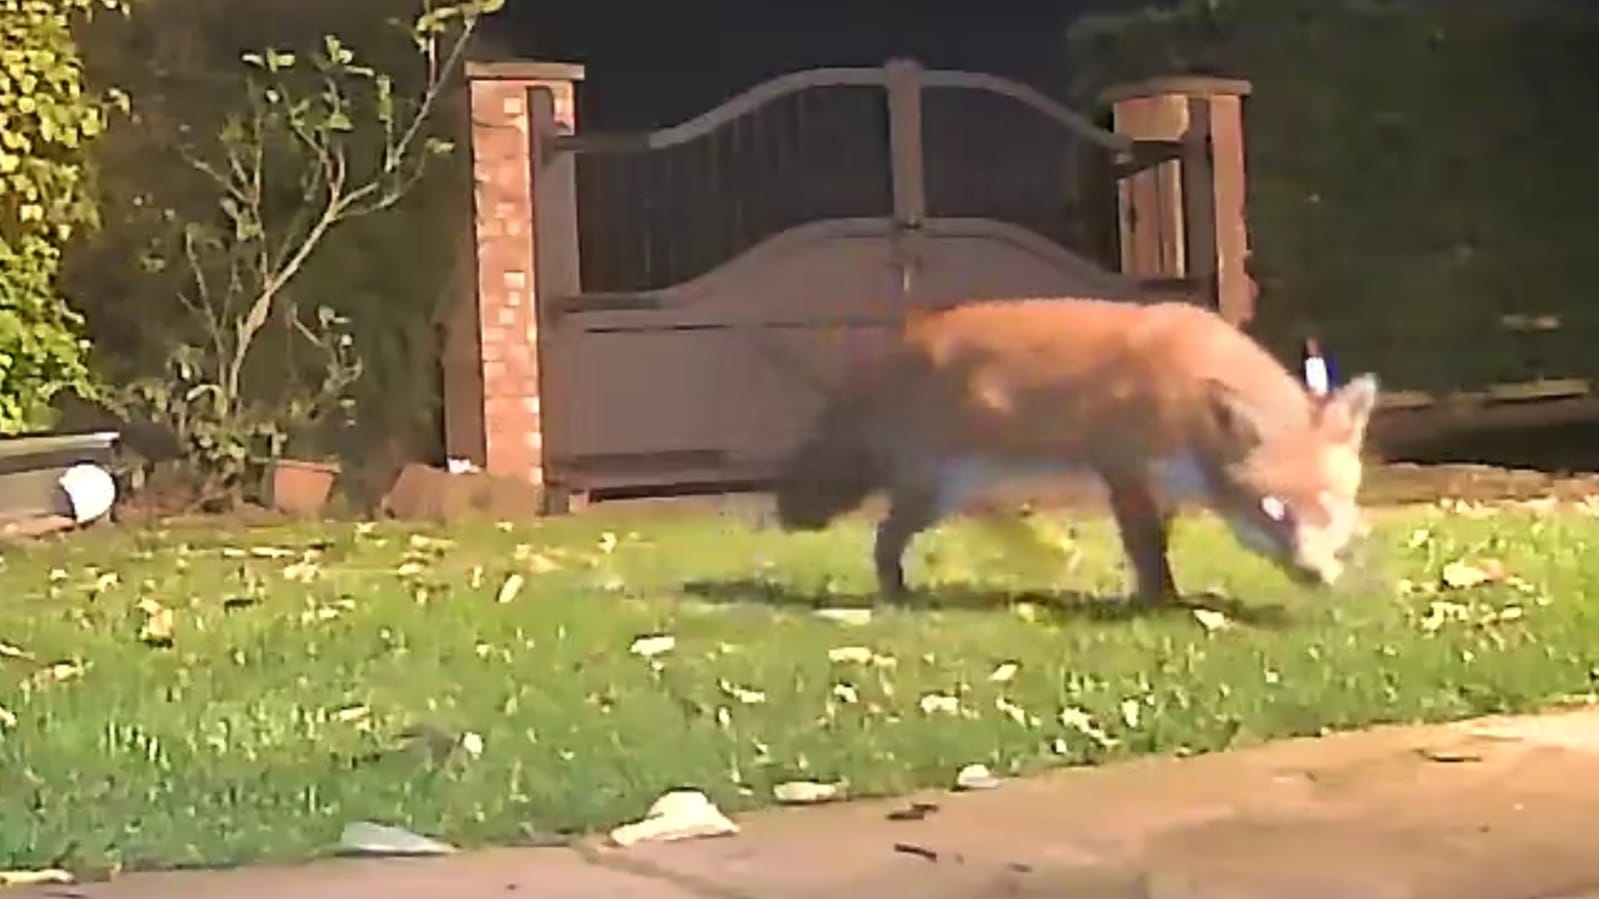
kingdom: Animalia
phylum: Chordata
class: Mammalia
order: Carnivora
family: Canidae
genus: Vulpes
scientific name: Vulpes vulpes
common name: Red fox
